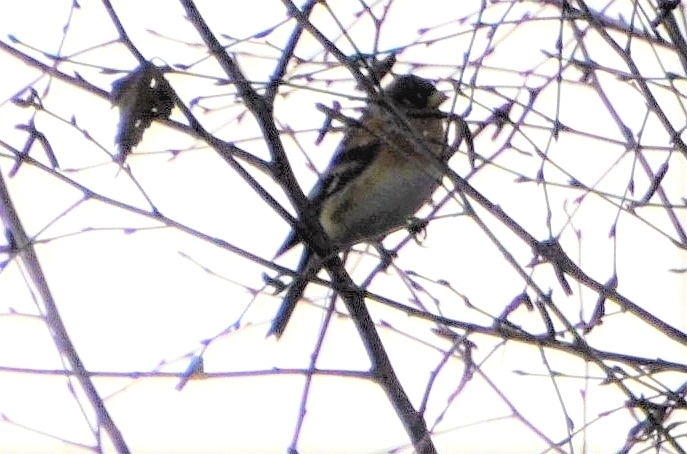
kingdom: Animalia
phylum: Chordata
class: Aves
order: Passeriformes
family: Fringillidae
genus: Fringilla
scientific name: Fringilla montifringilla
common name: Brambling
